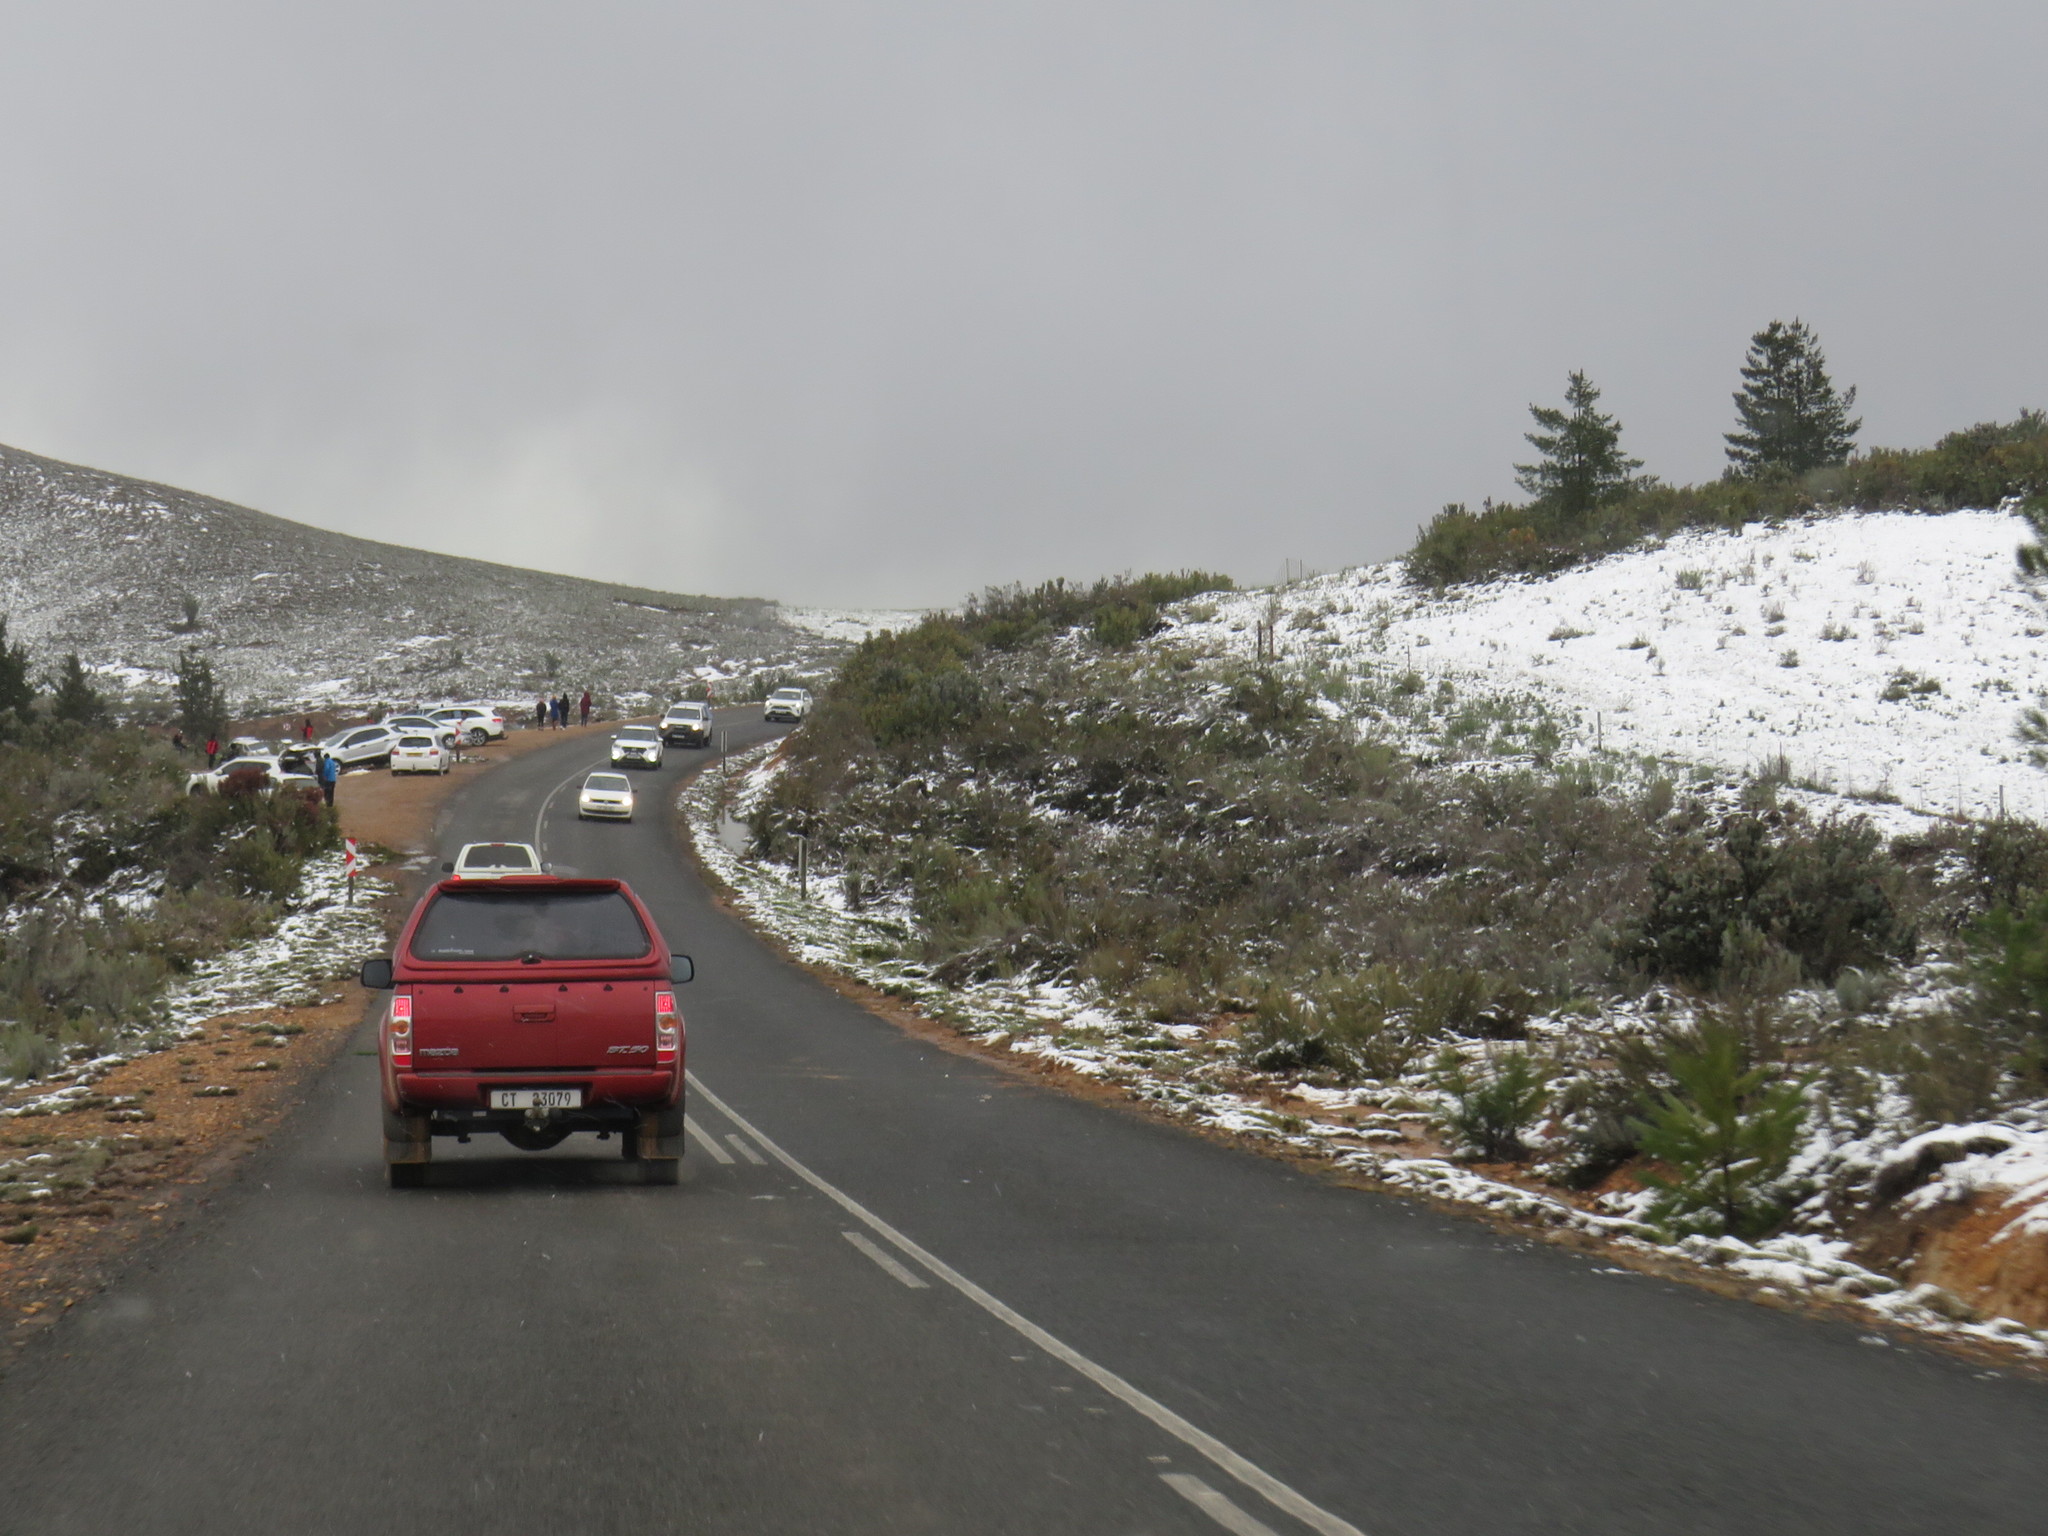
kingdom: Plantae
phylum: Tracheophyta
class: Pinopsida
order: Pinales
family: Pinaceae
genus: Pinus
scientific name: Pinus pinaster
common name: Maritime pine
